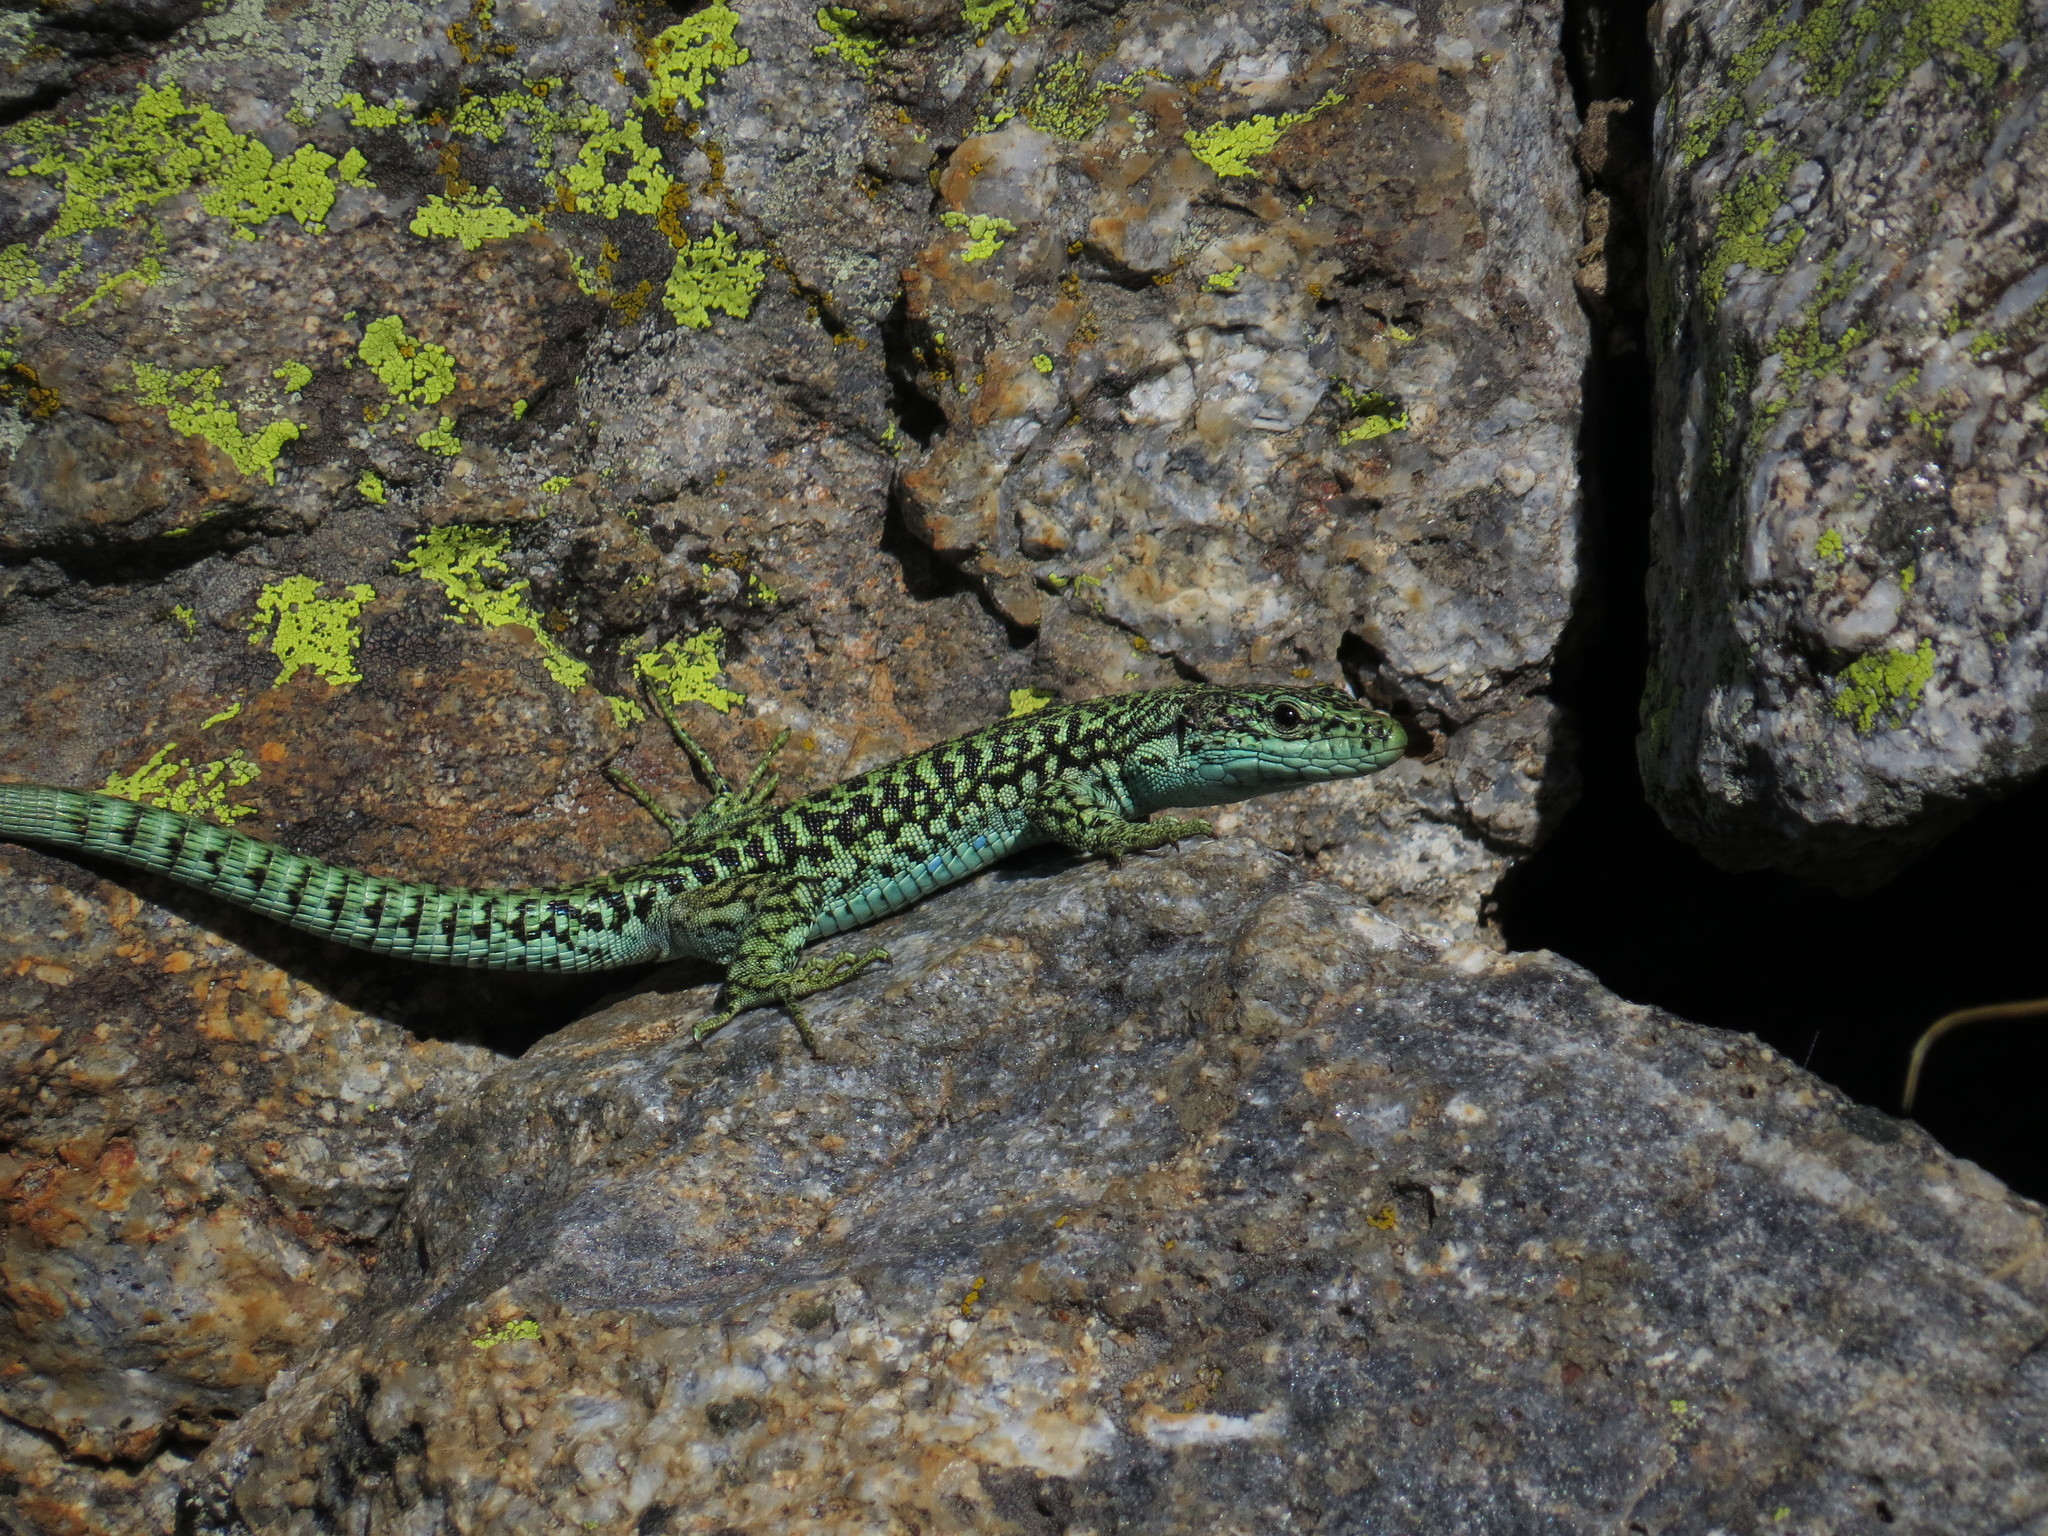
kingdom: Animalia
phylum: Chordata
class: Squamata
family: Lacertidae
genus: Iberolacerta
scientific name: Iberolacerta cyreni
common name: Cyren’s rock lizard
